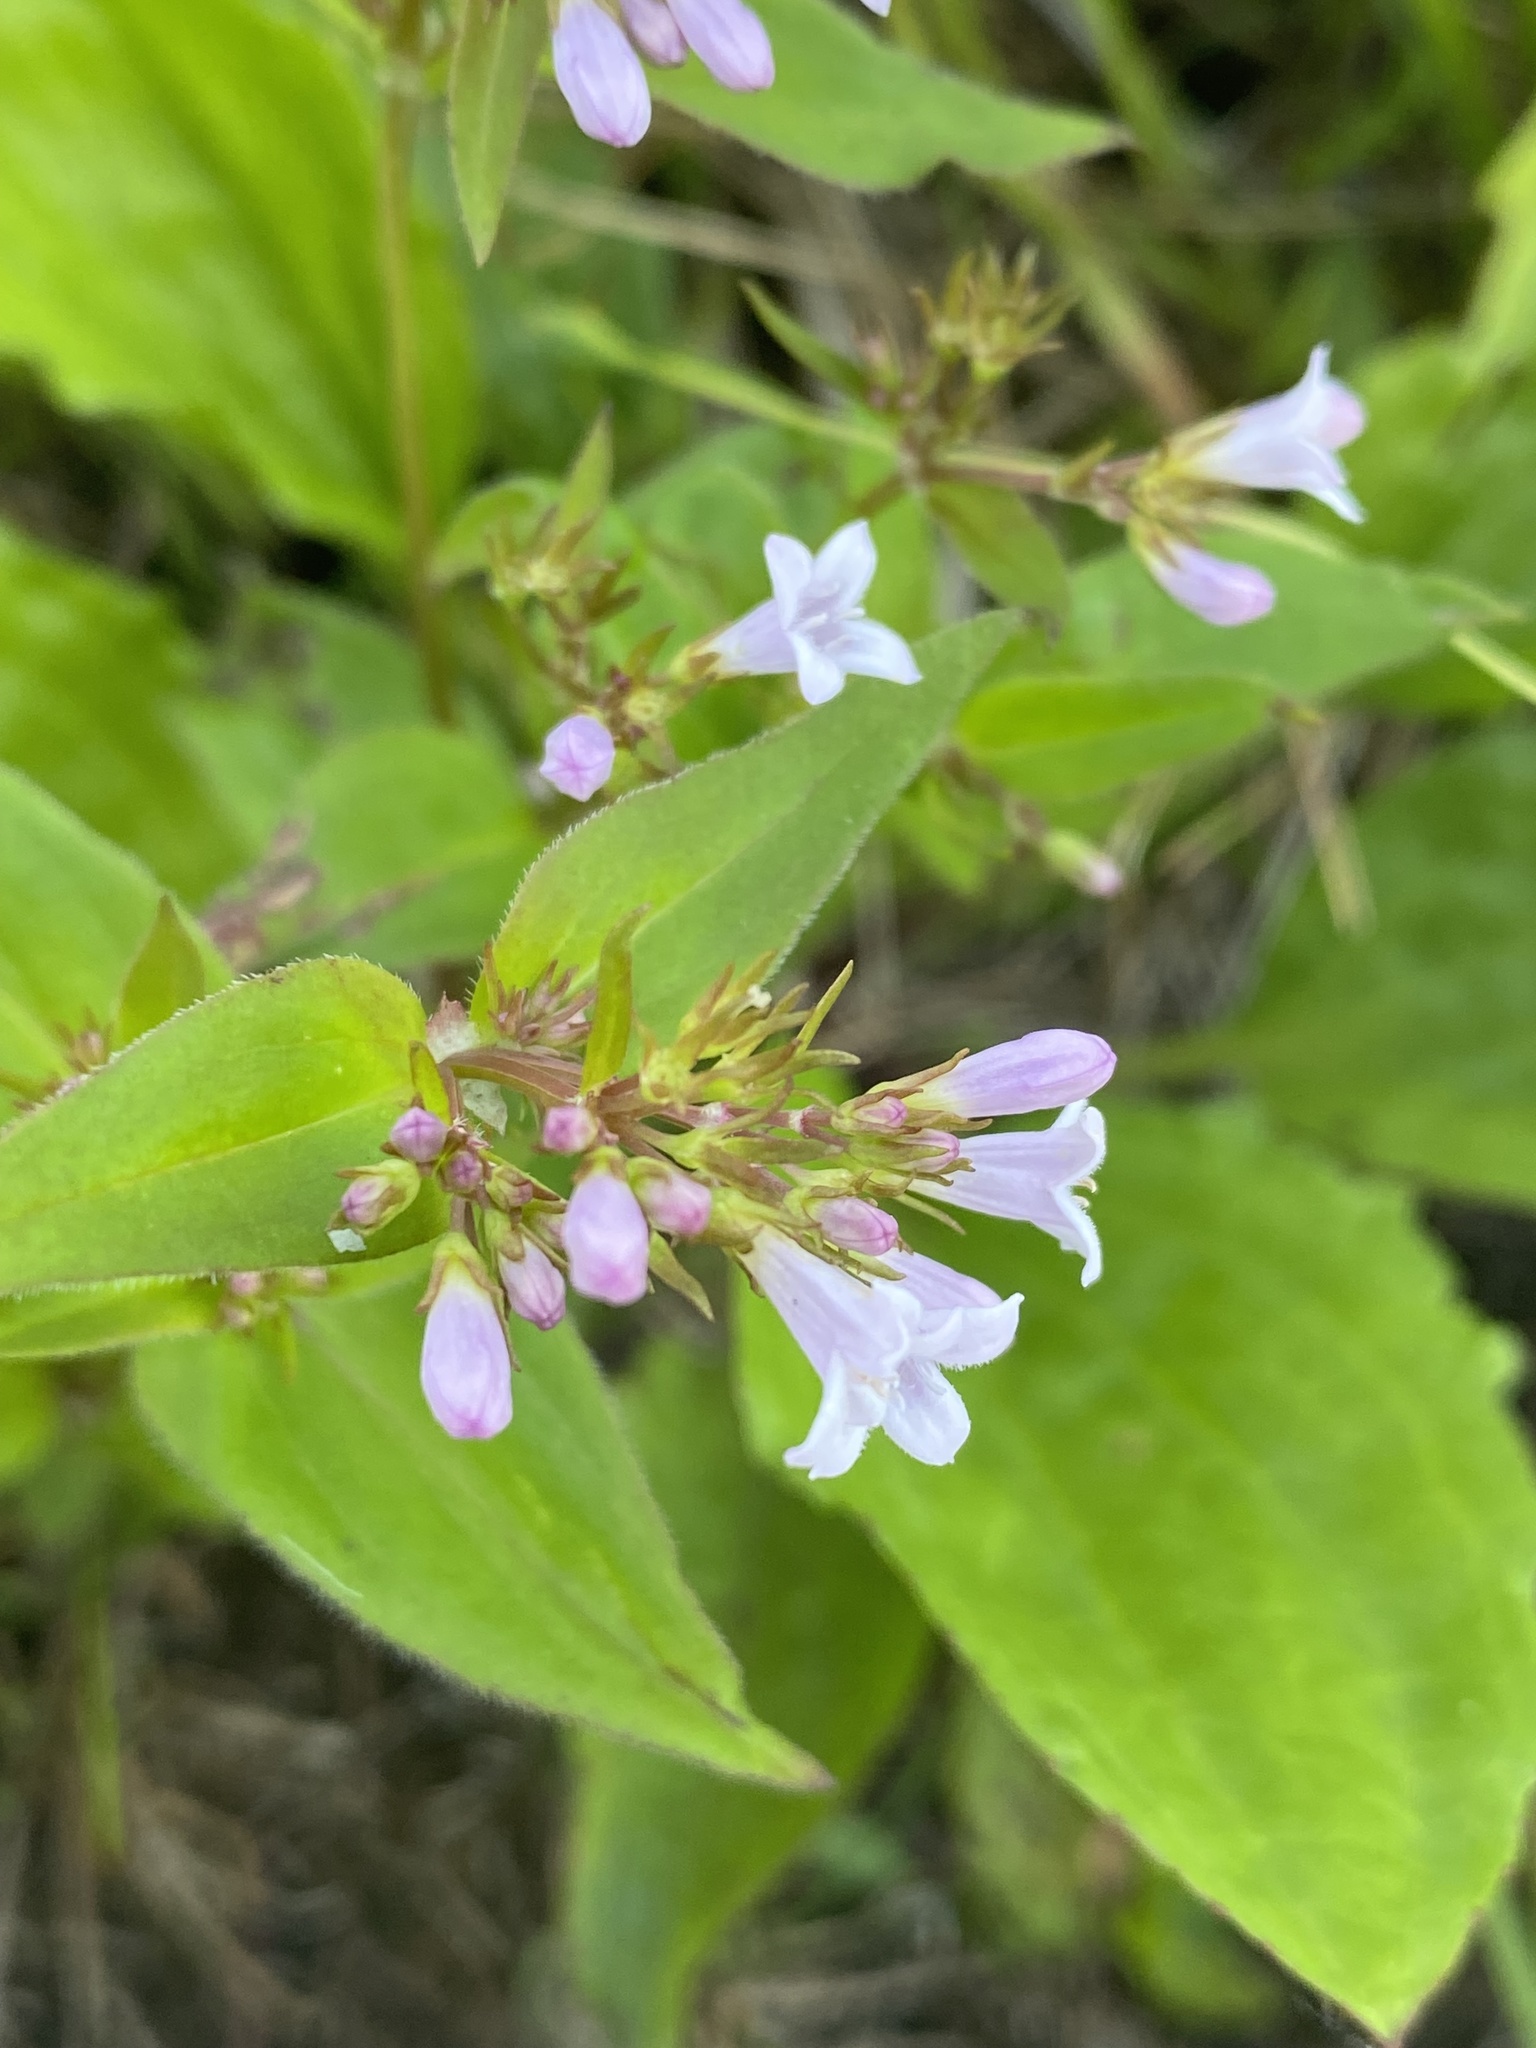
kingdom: Plantae
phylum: Tracheophyta
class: Magnoliopsida
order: Gentianales
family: Rubiaceae
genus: Houstonia
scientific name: Houstonia purpurea
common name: Summer bluet
